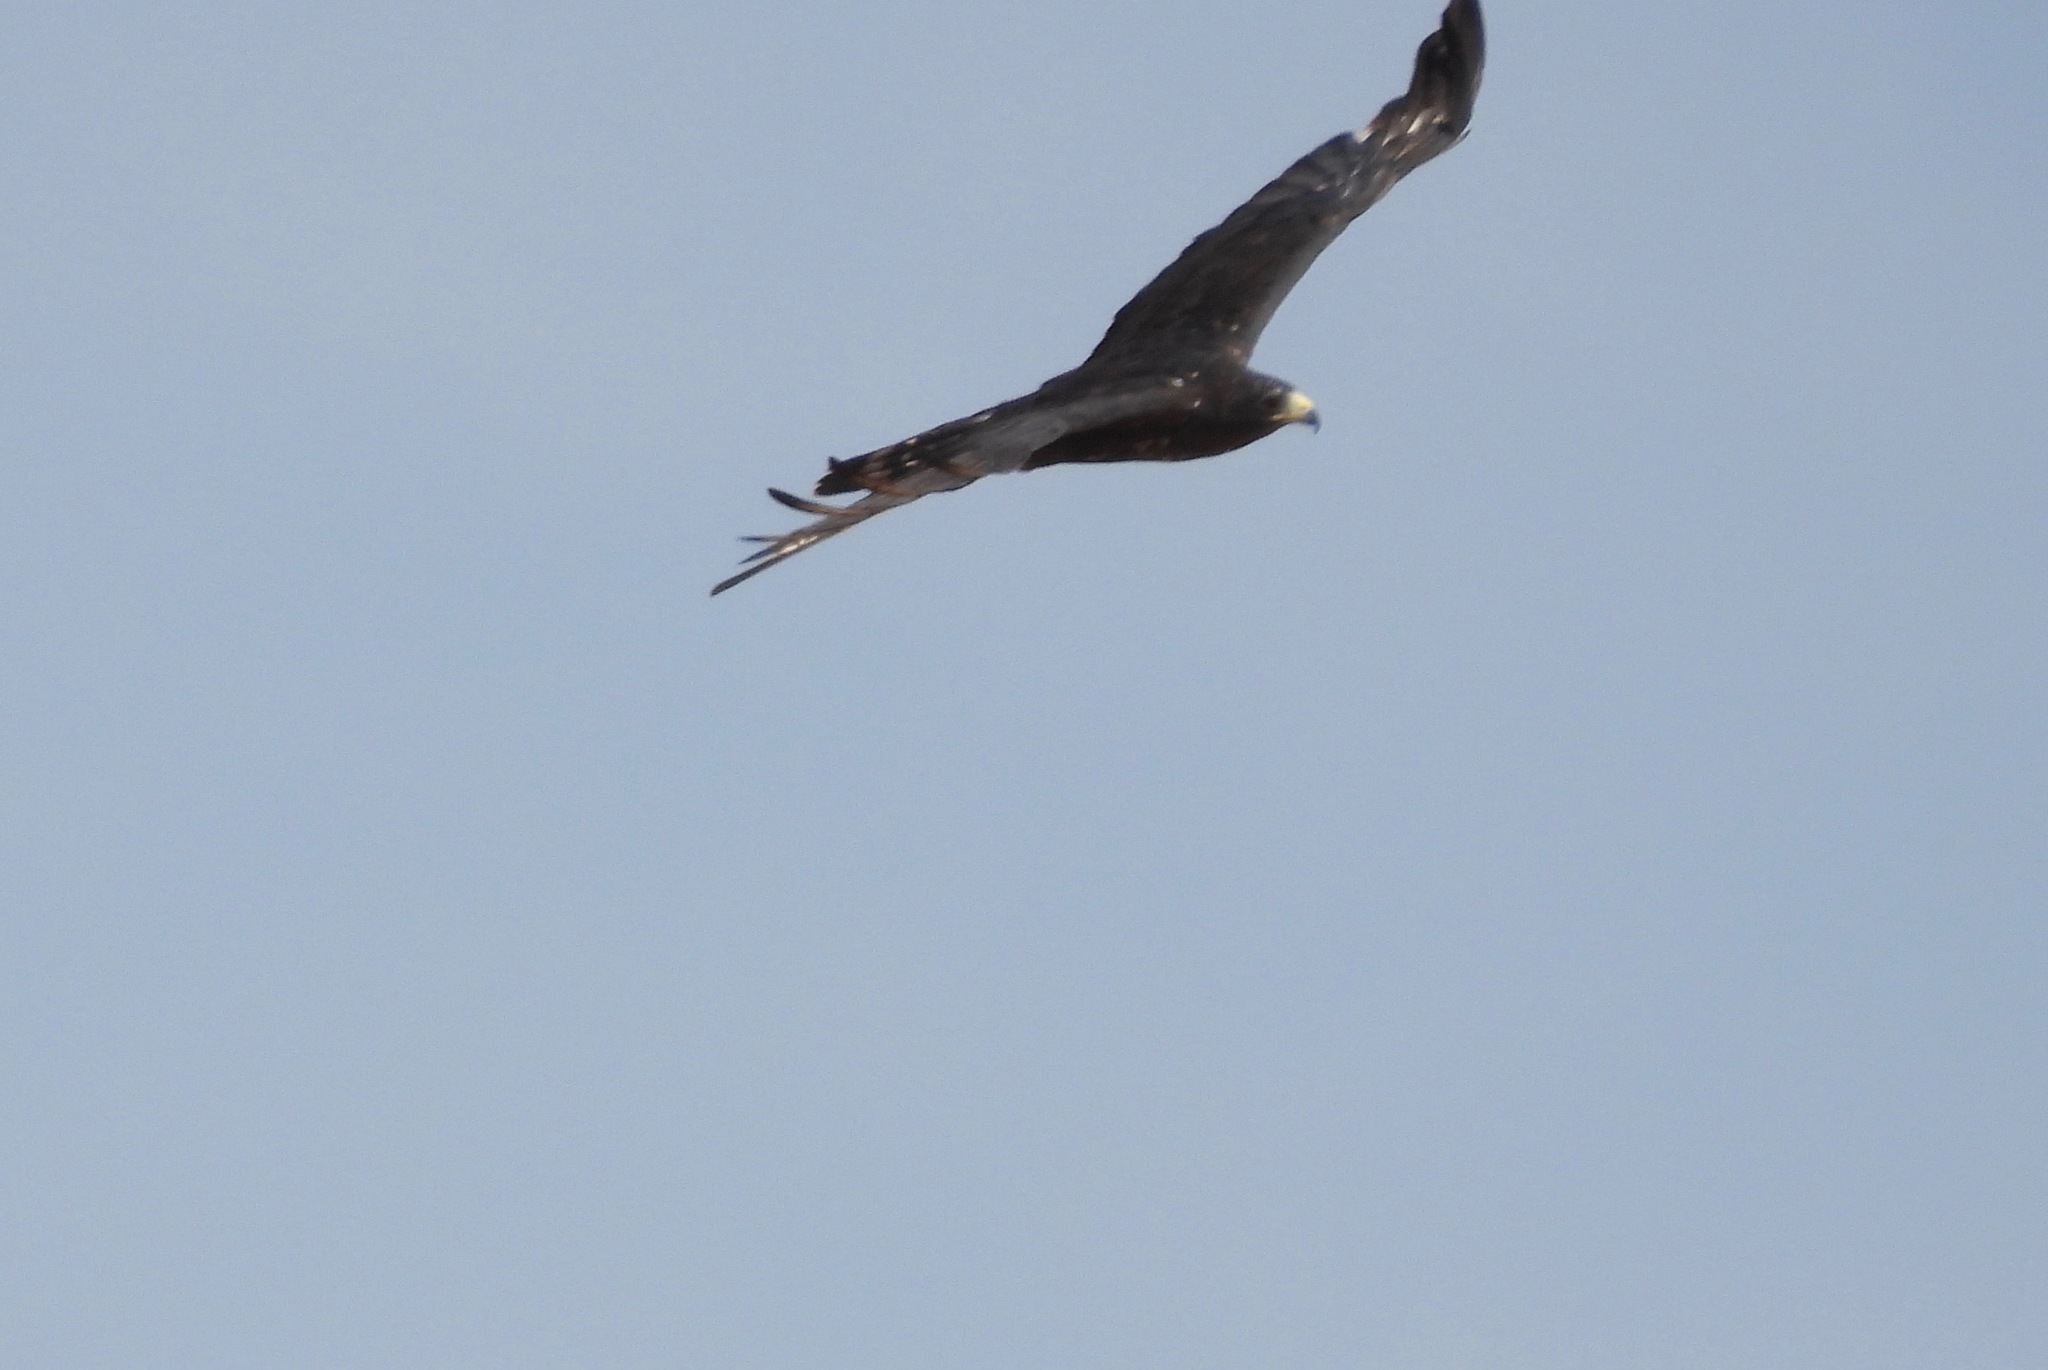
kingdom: Animalia
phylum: Chordata
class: Aves
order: Accipitriformes
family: Accipitridae
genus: Buteo
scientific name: Buteo albonotatus
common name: Zone-tailed hawk
